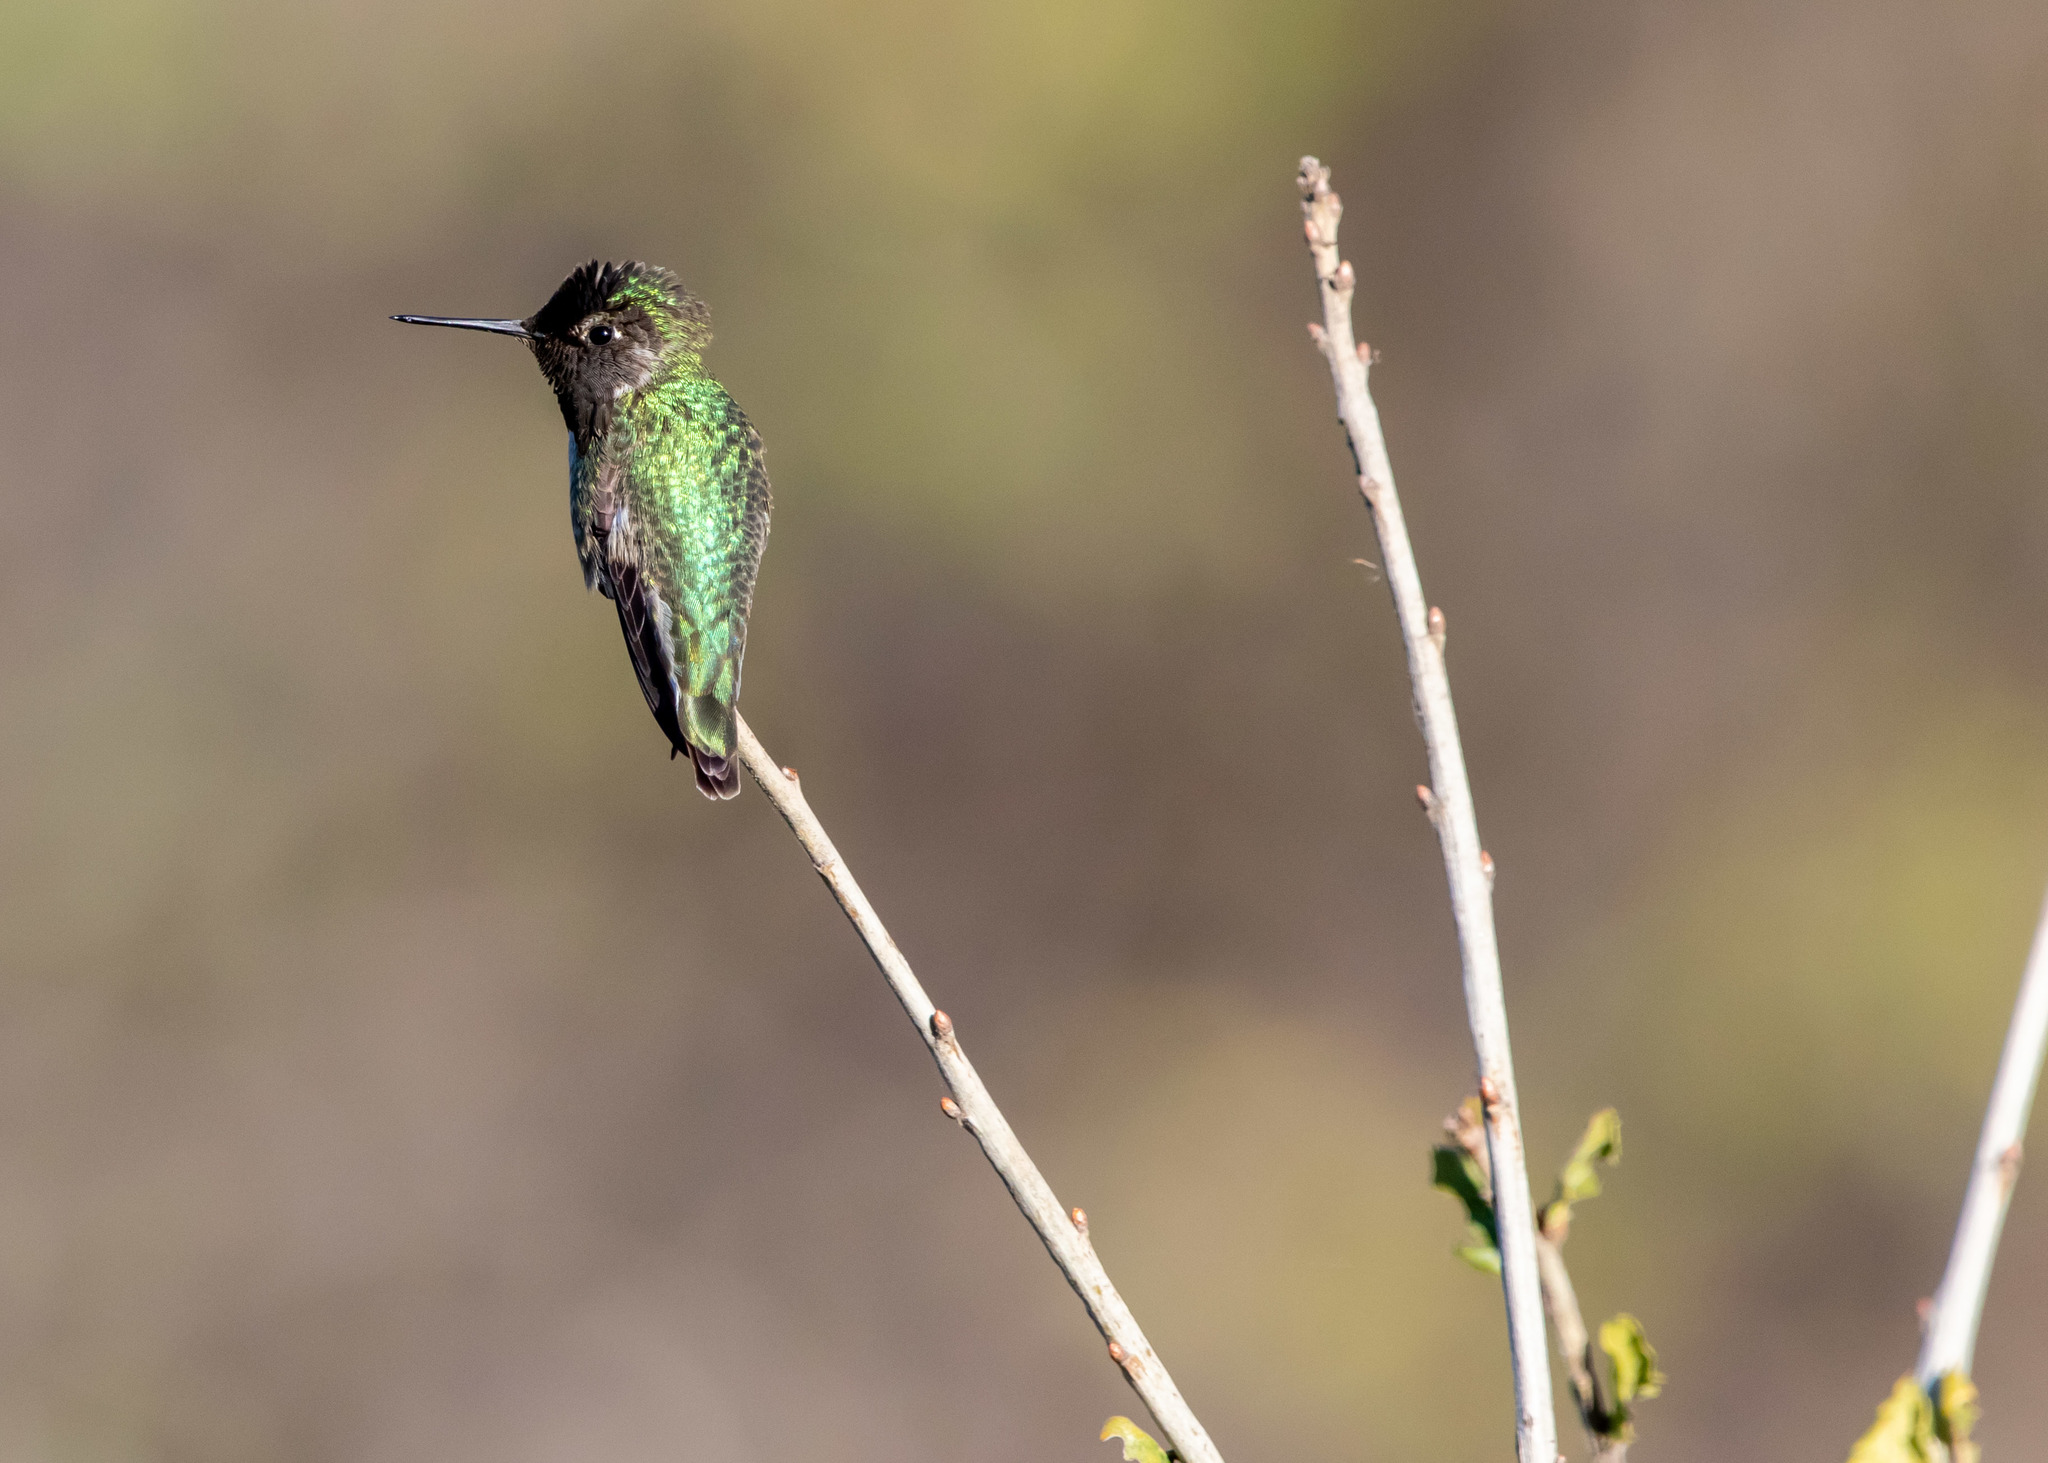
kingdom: Animalia
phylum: Chordata
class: Aves
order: Apodiformes
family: Trochilidae
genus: Calypte
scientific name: Calypte anna
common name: Anna's hummingbird
